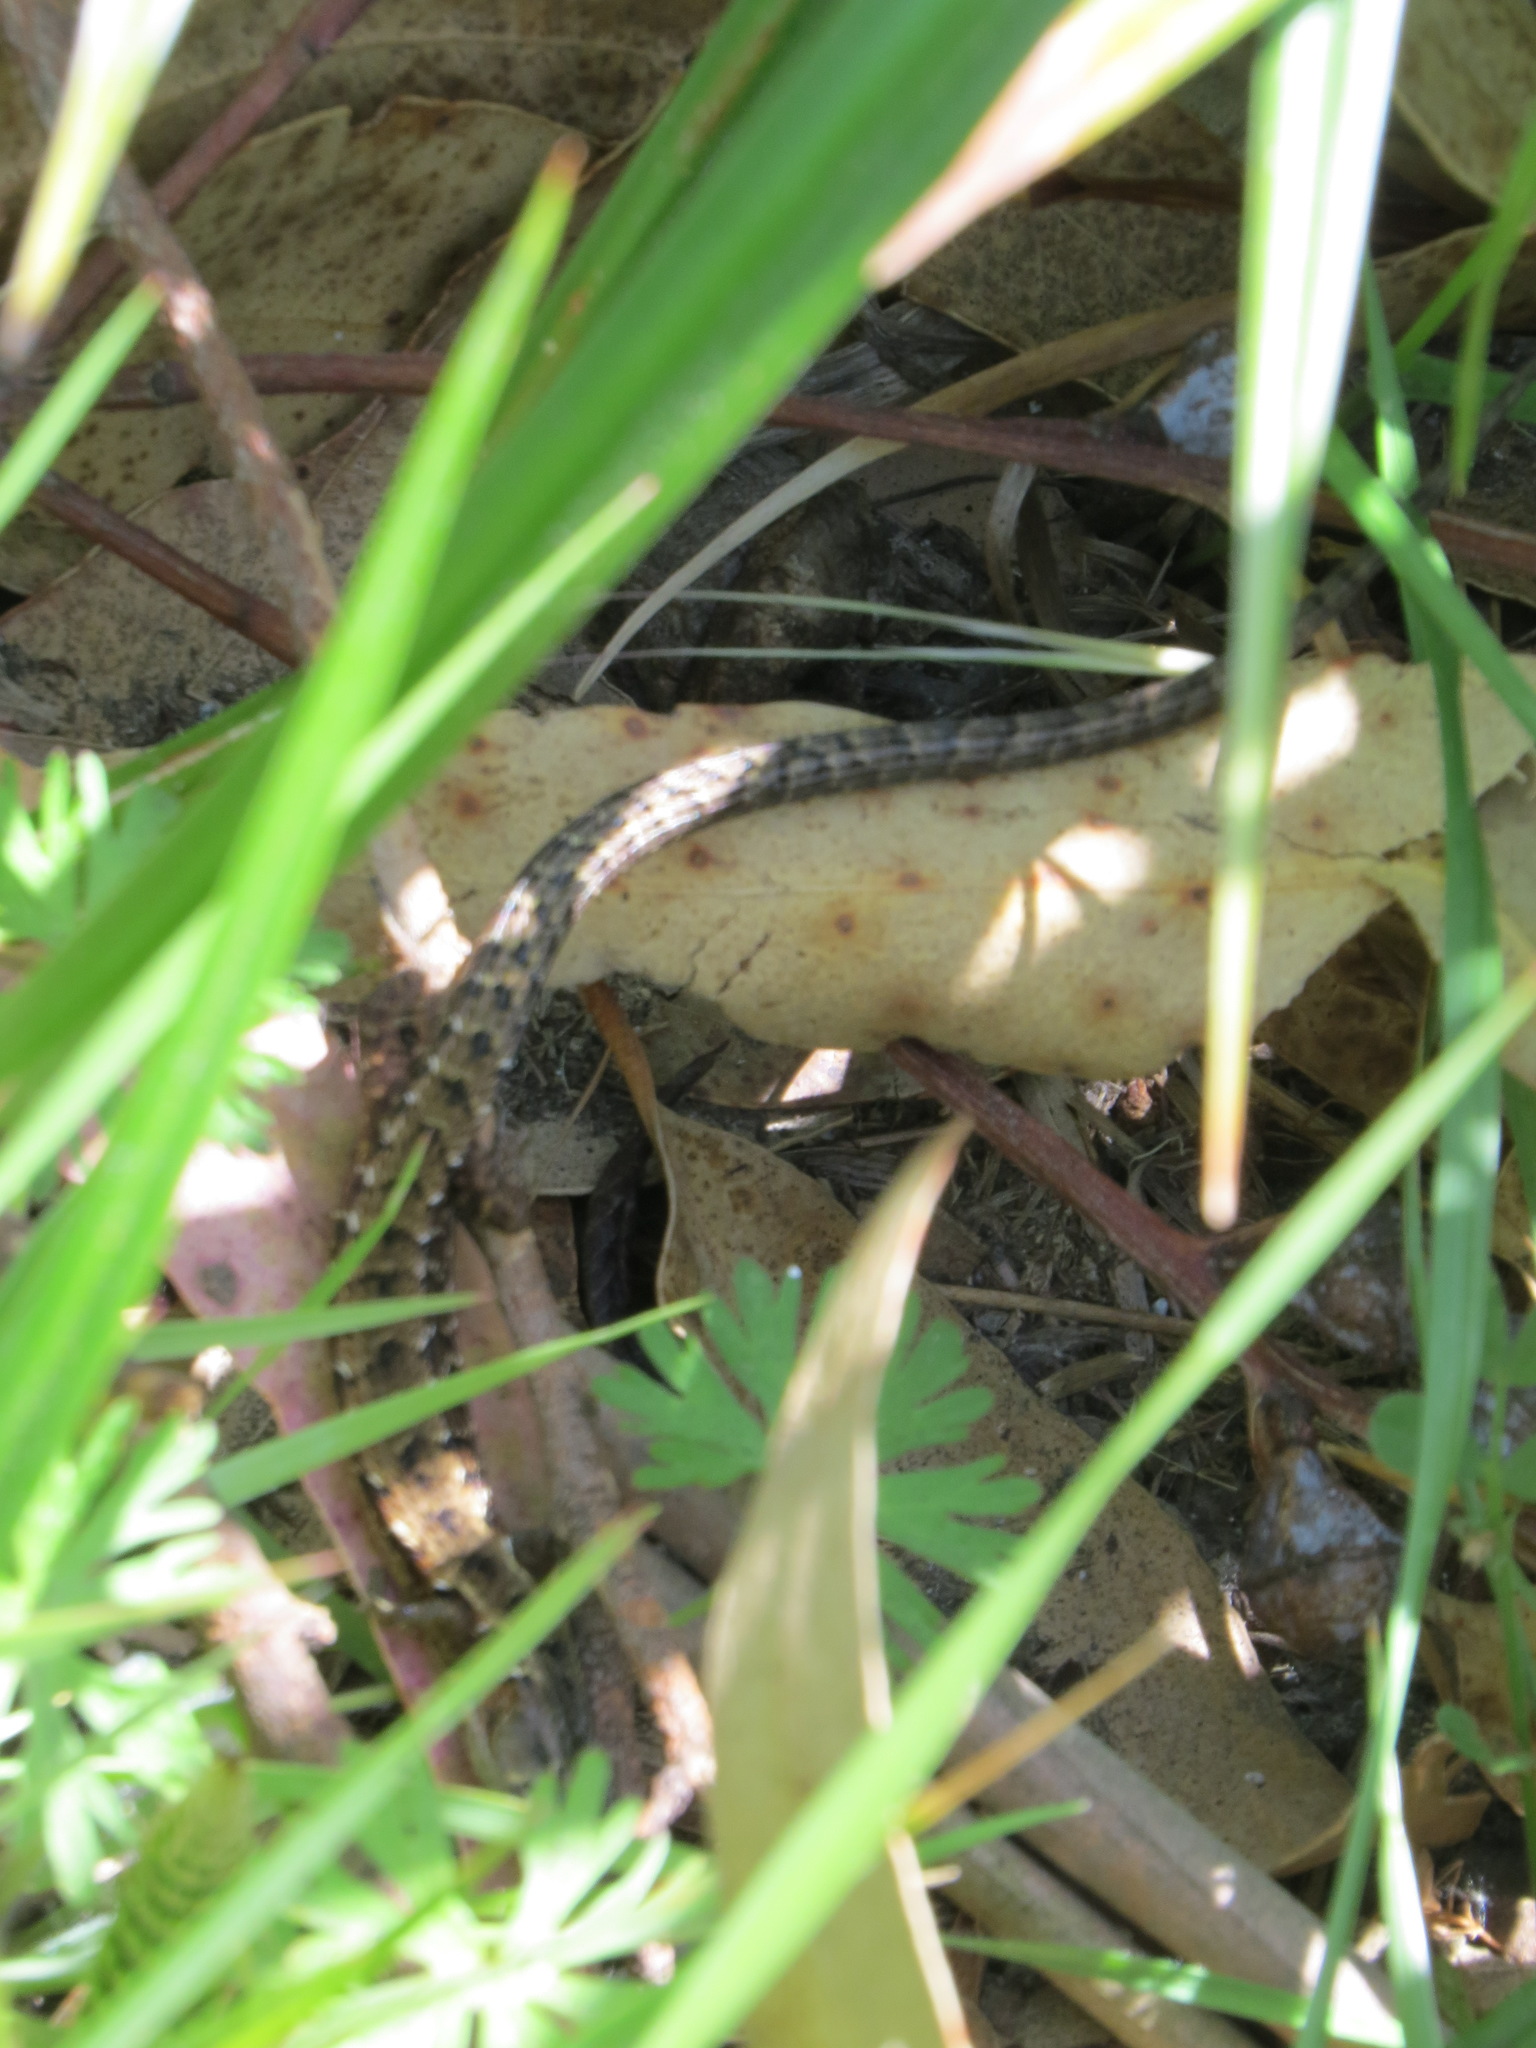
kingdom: Animalia
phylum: Chordata
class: Squamata
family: Anguidae
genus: Elgaria
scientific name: Elgaria coerulea
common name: Northern alligator lizard
